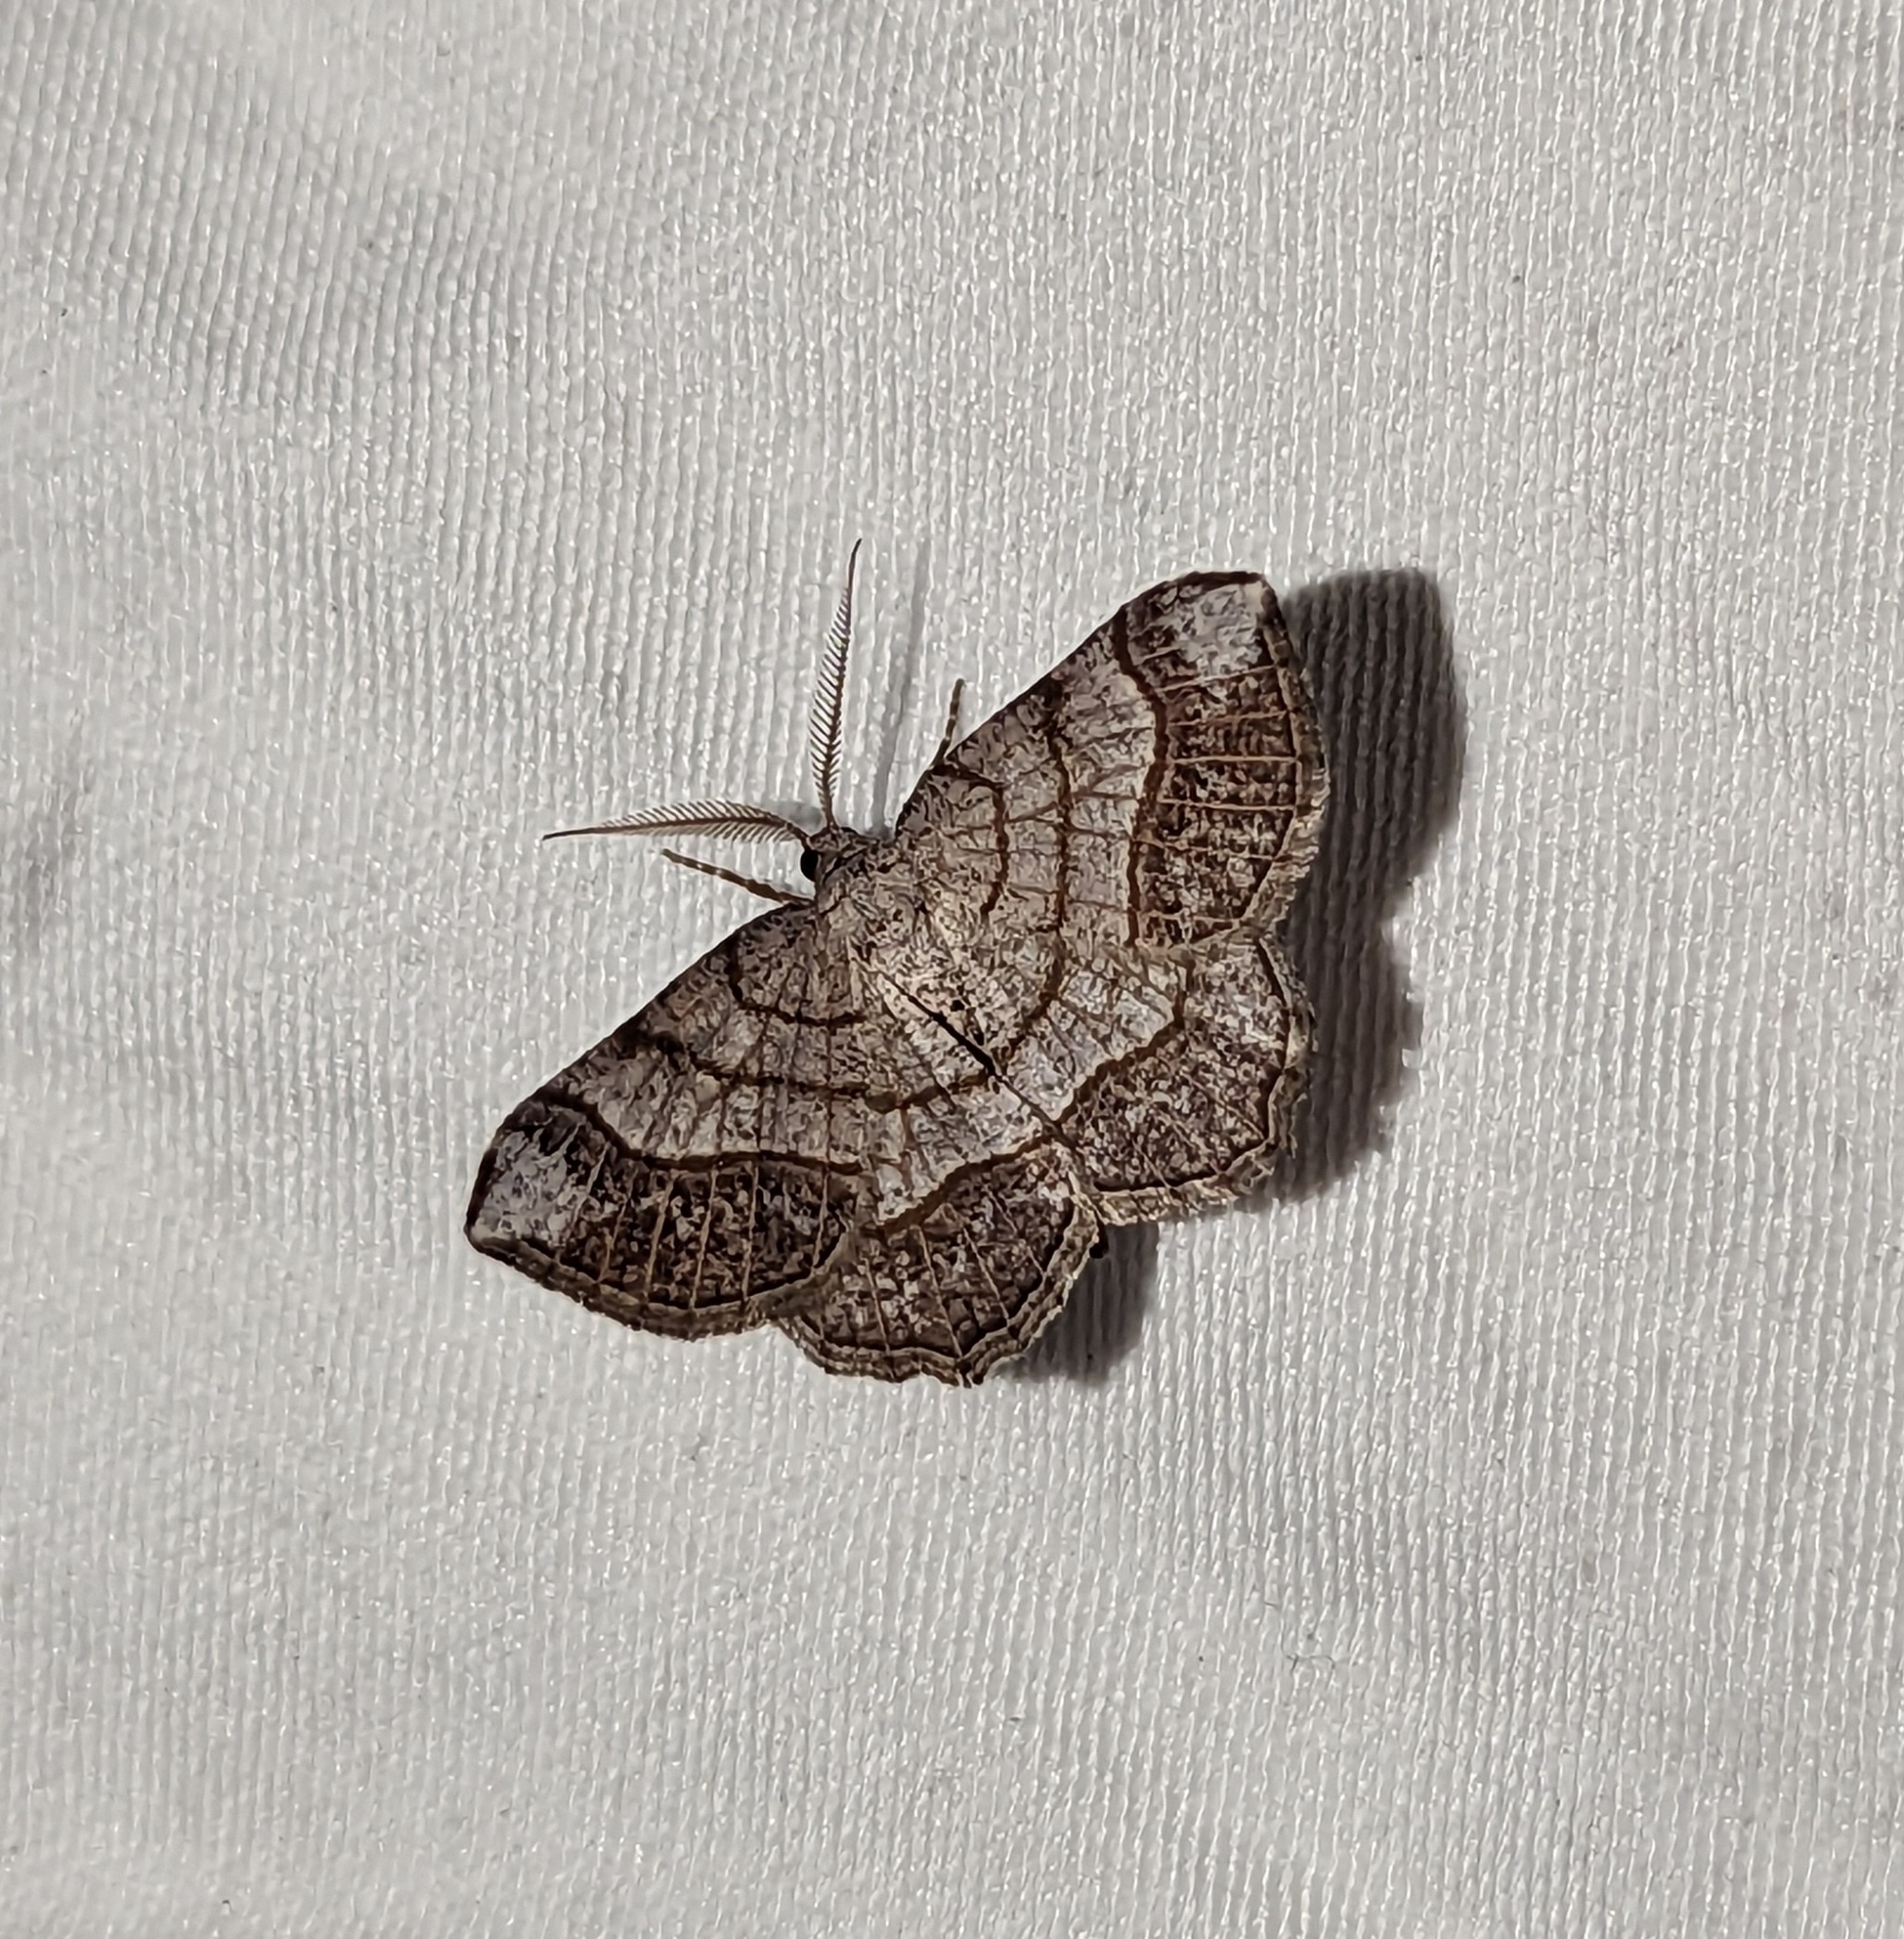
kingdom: Animalia
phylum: Arthropoda
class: Insecta
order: Lepidoptera
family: Geometridae
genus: Eumacaria
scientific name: Eumacaria madopata
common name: Brown-bordered geometer
